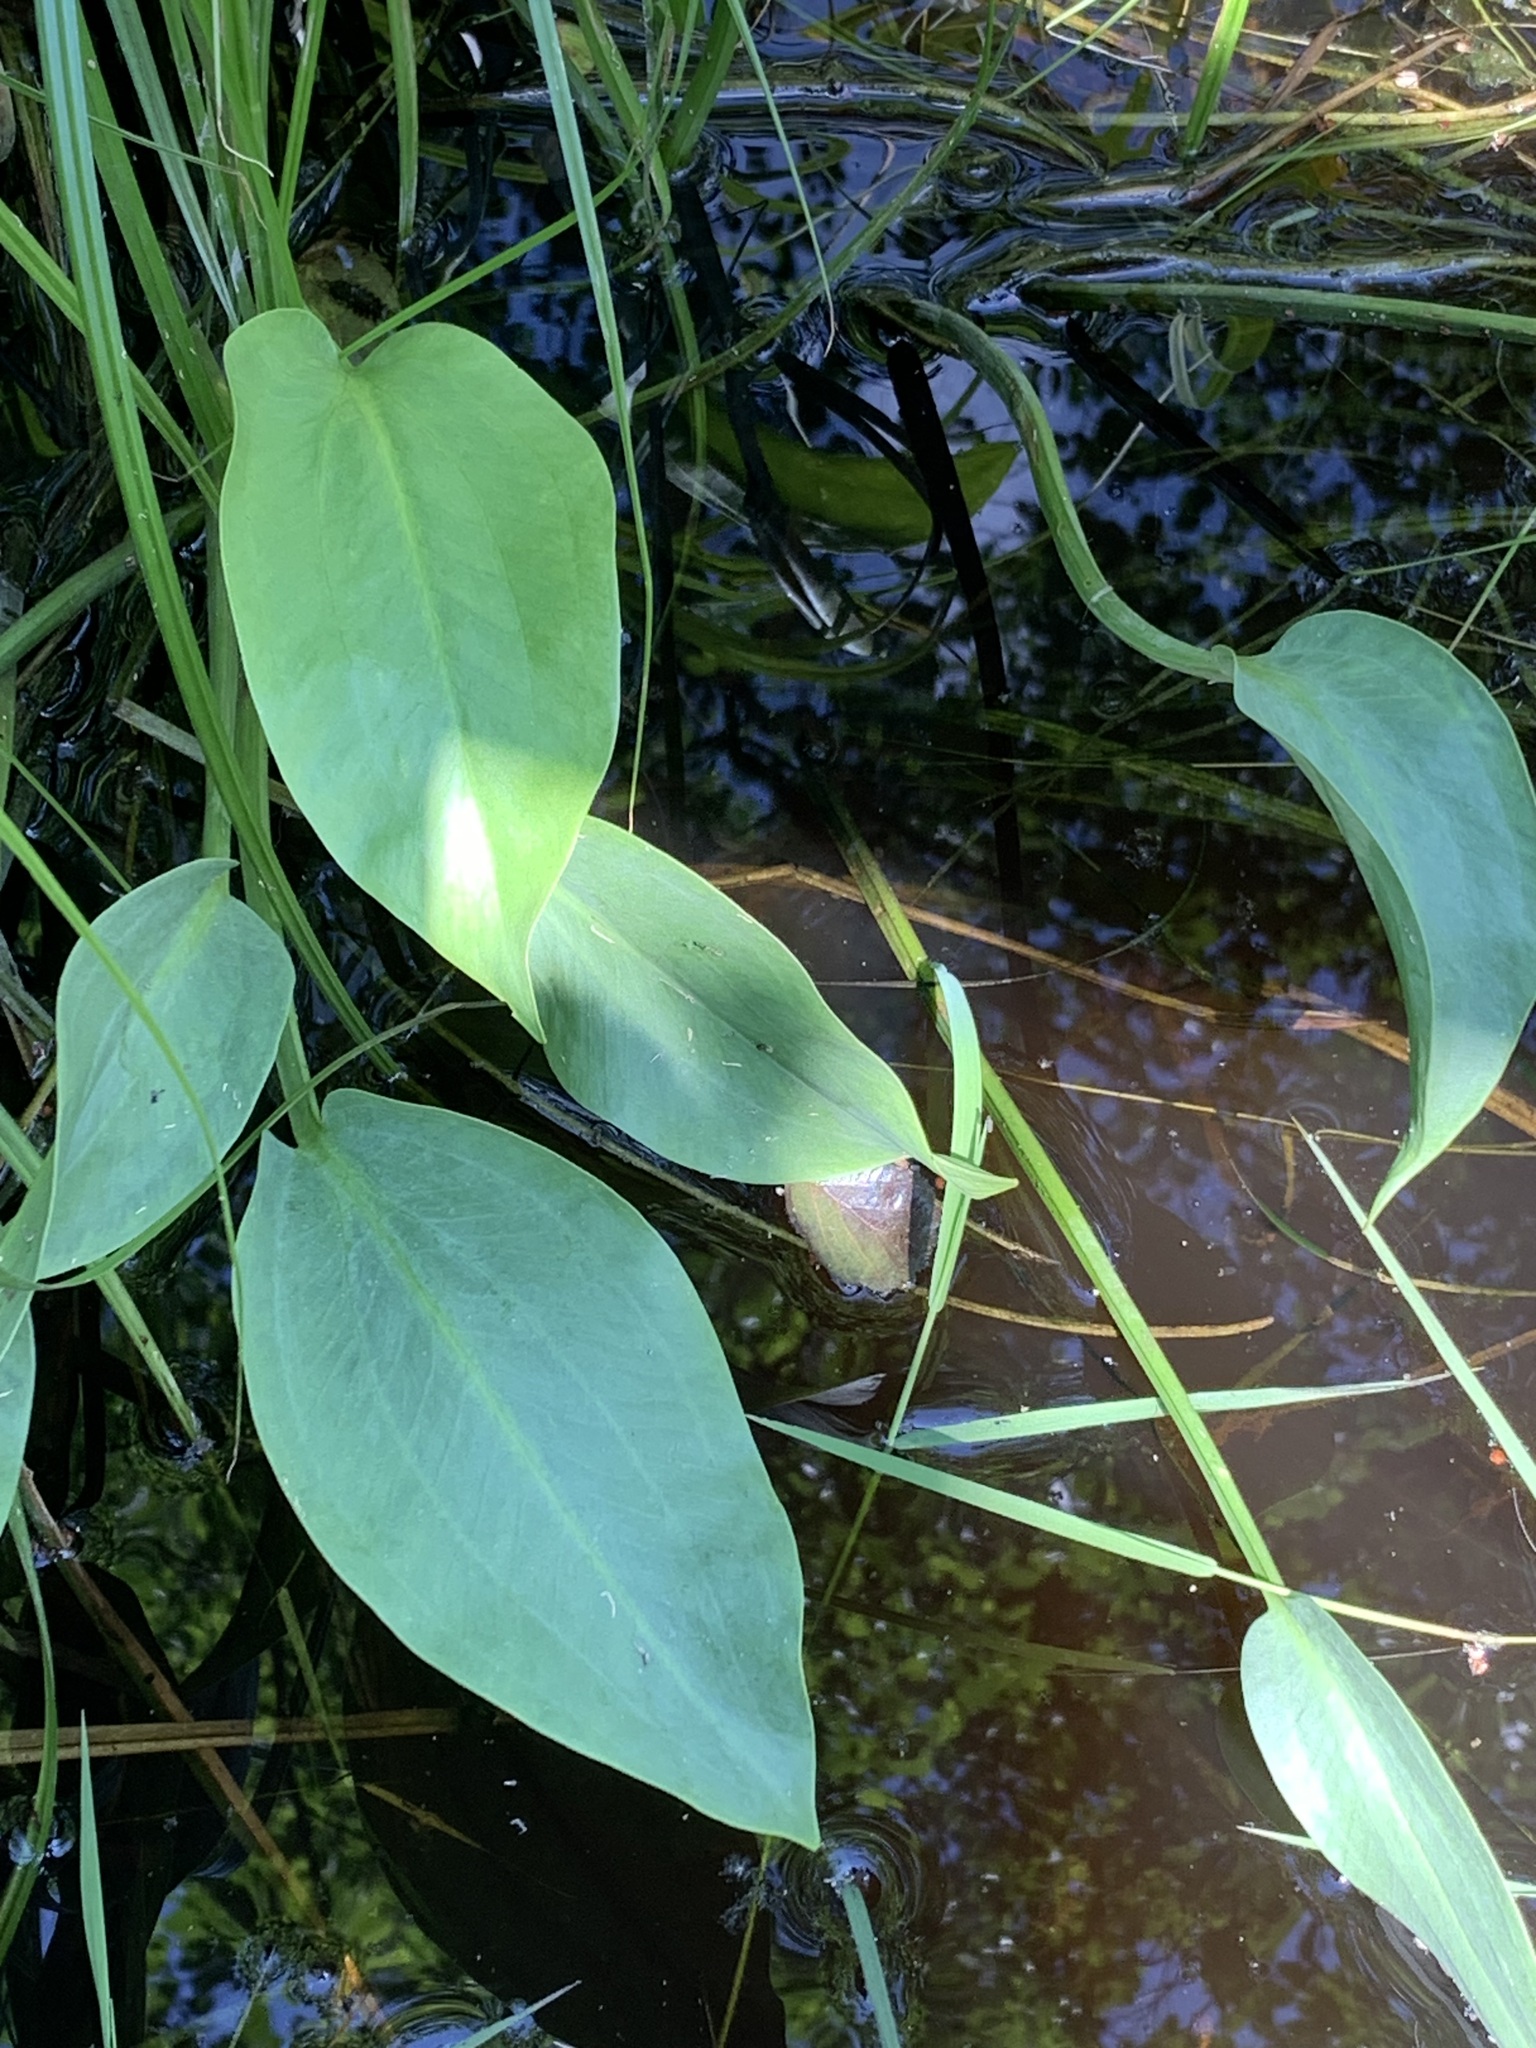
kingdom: Plantae
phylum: Tracheophyta
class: Liliopsida
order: Alismatales
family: Alismataceae
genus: Alisma
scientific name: Alisma plantago-aquatica
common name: Water-plantain
